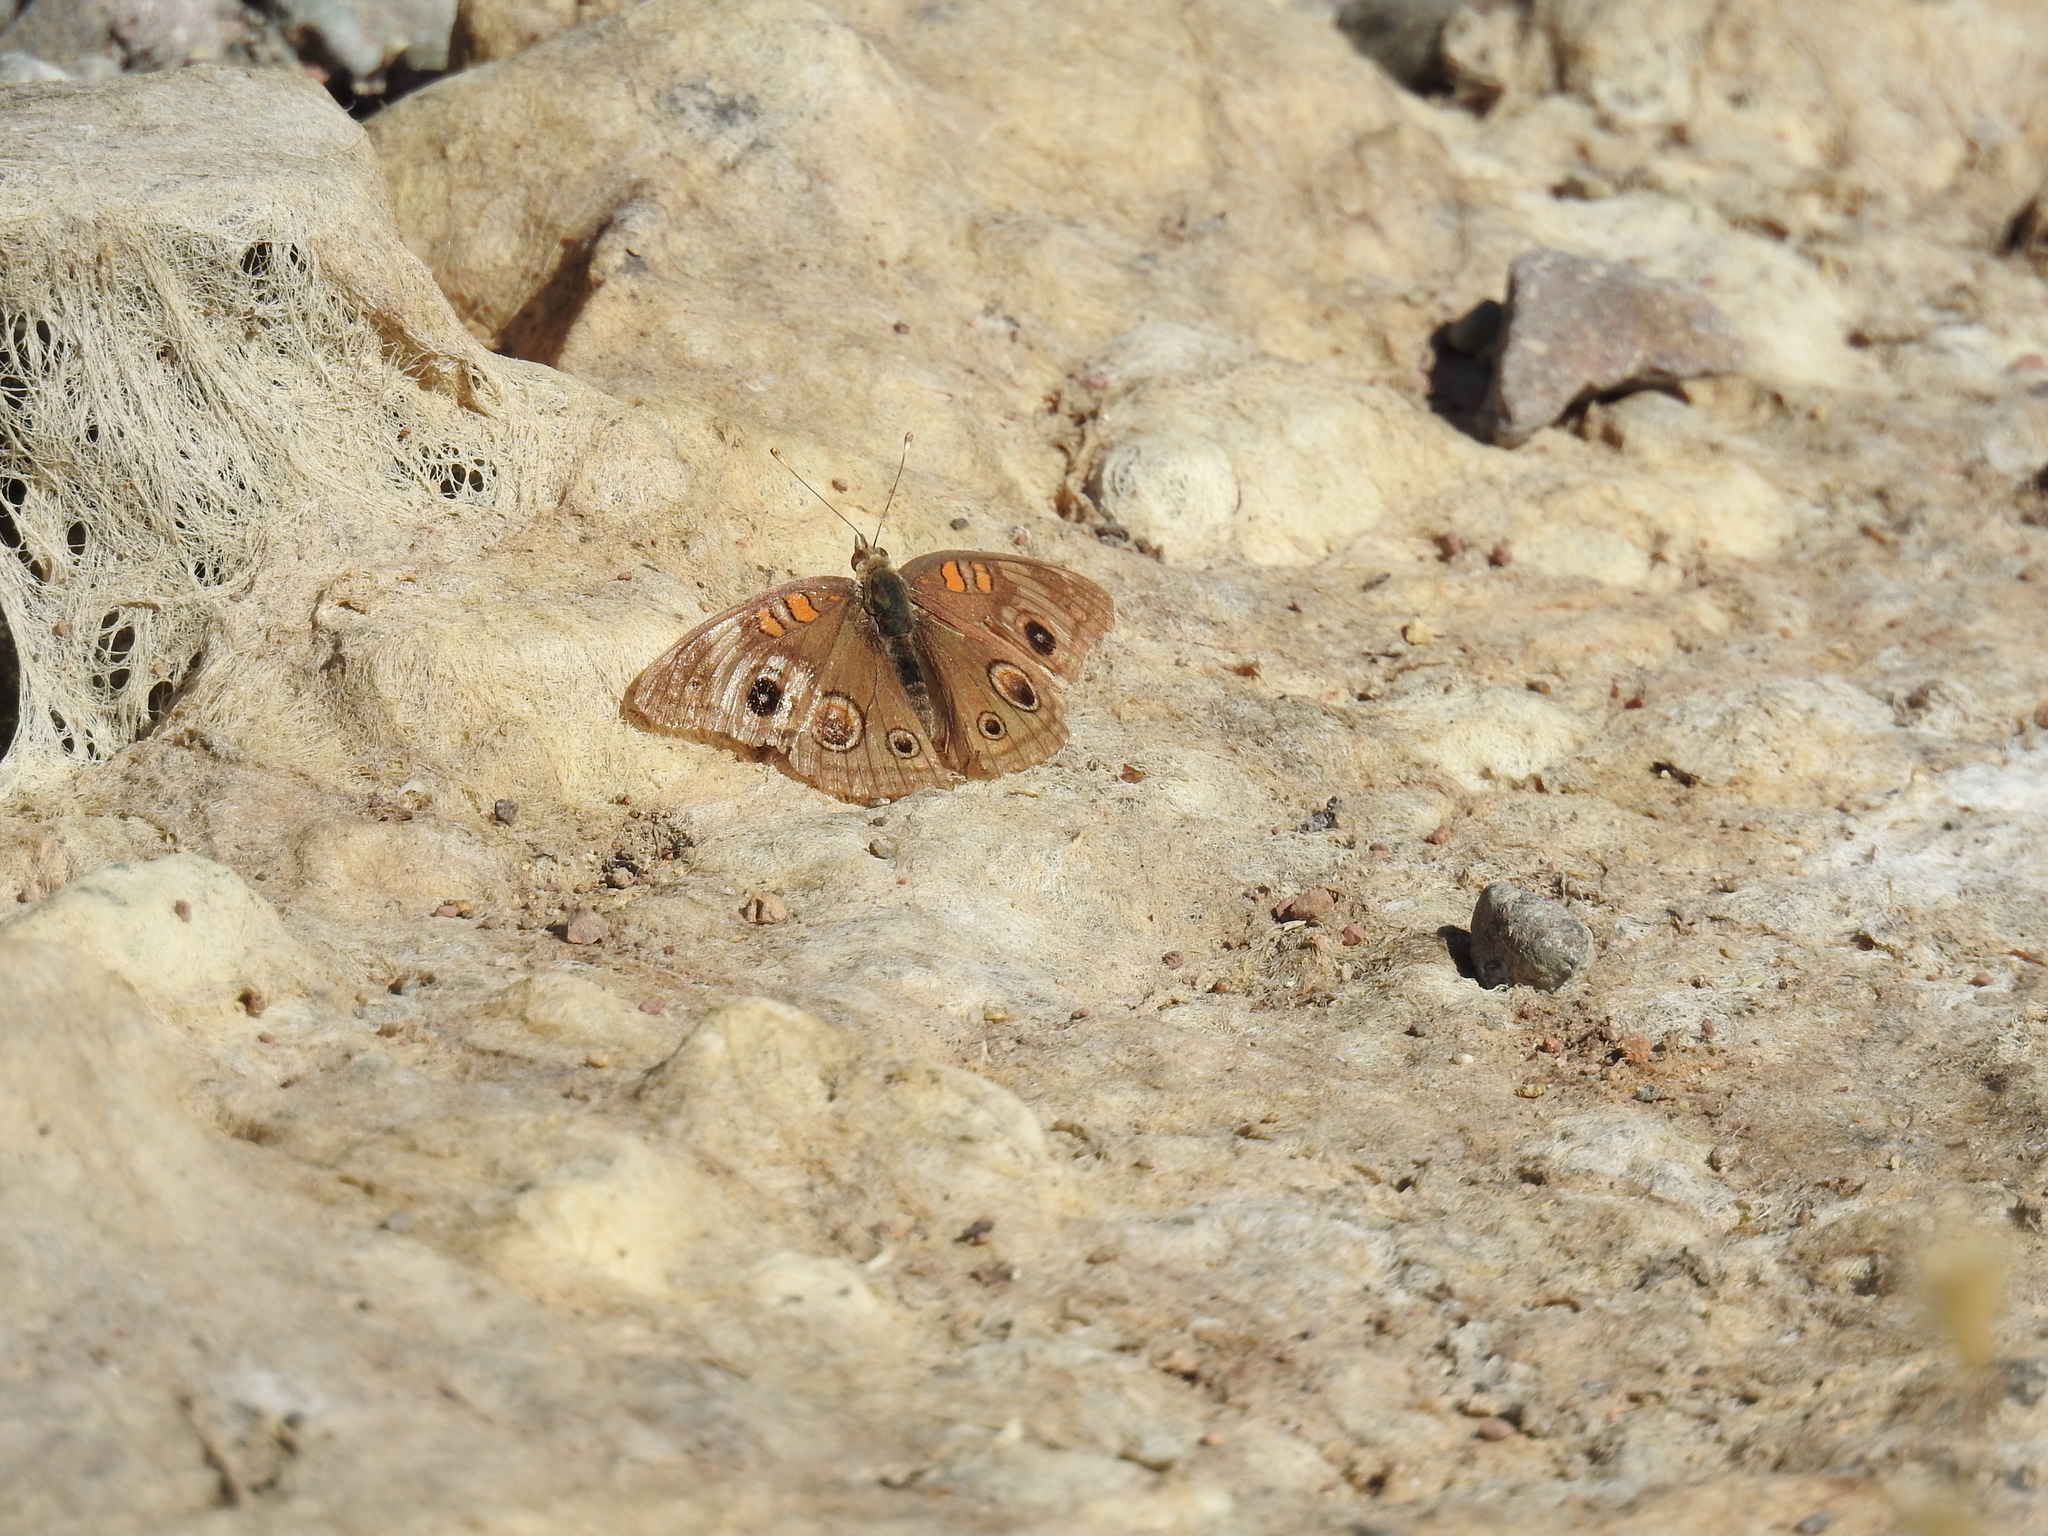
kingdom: Animalia
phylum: Arthropoda
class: Insecta
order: Lepidoptera
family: Nymphalidae
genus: Junonia
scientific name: Junonia grisea
